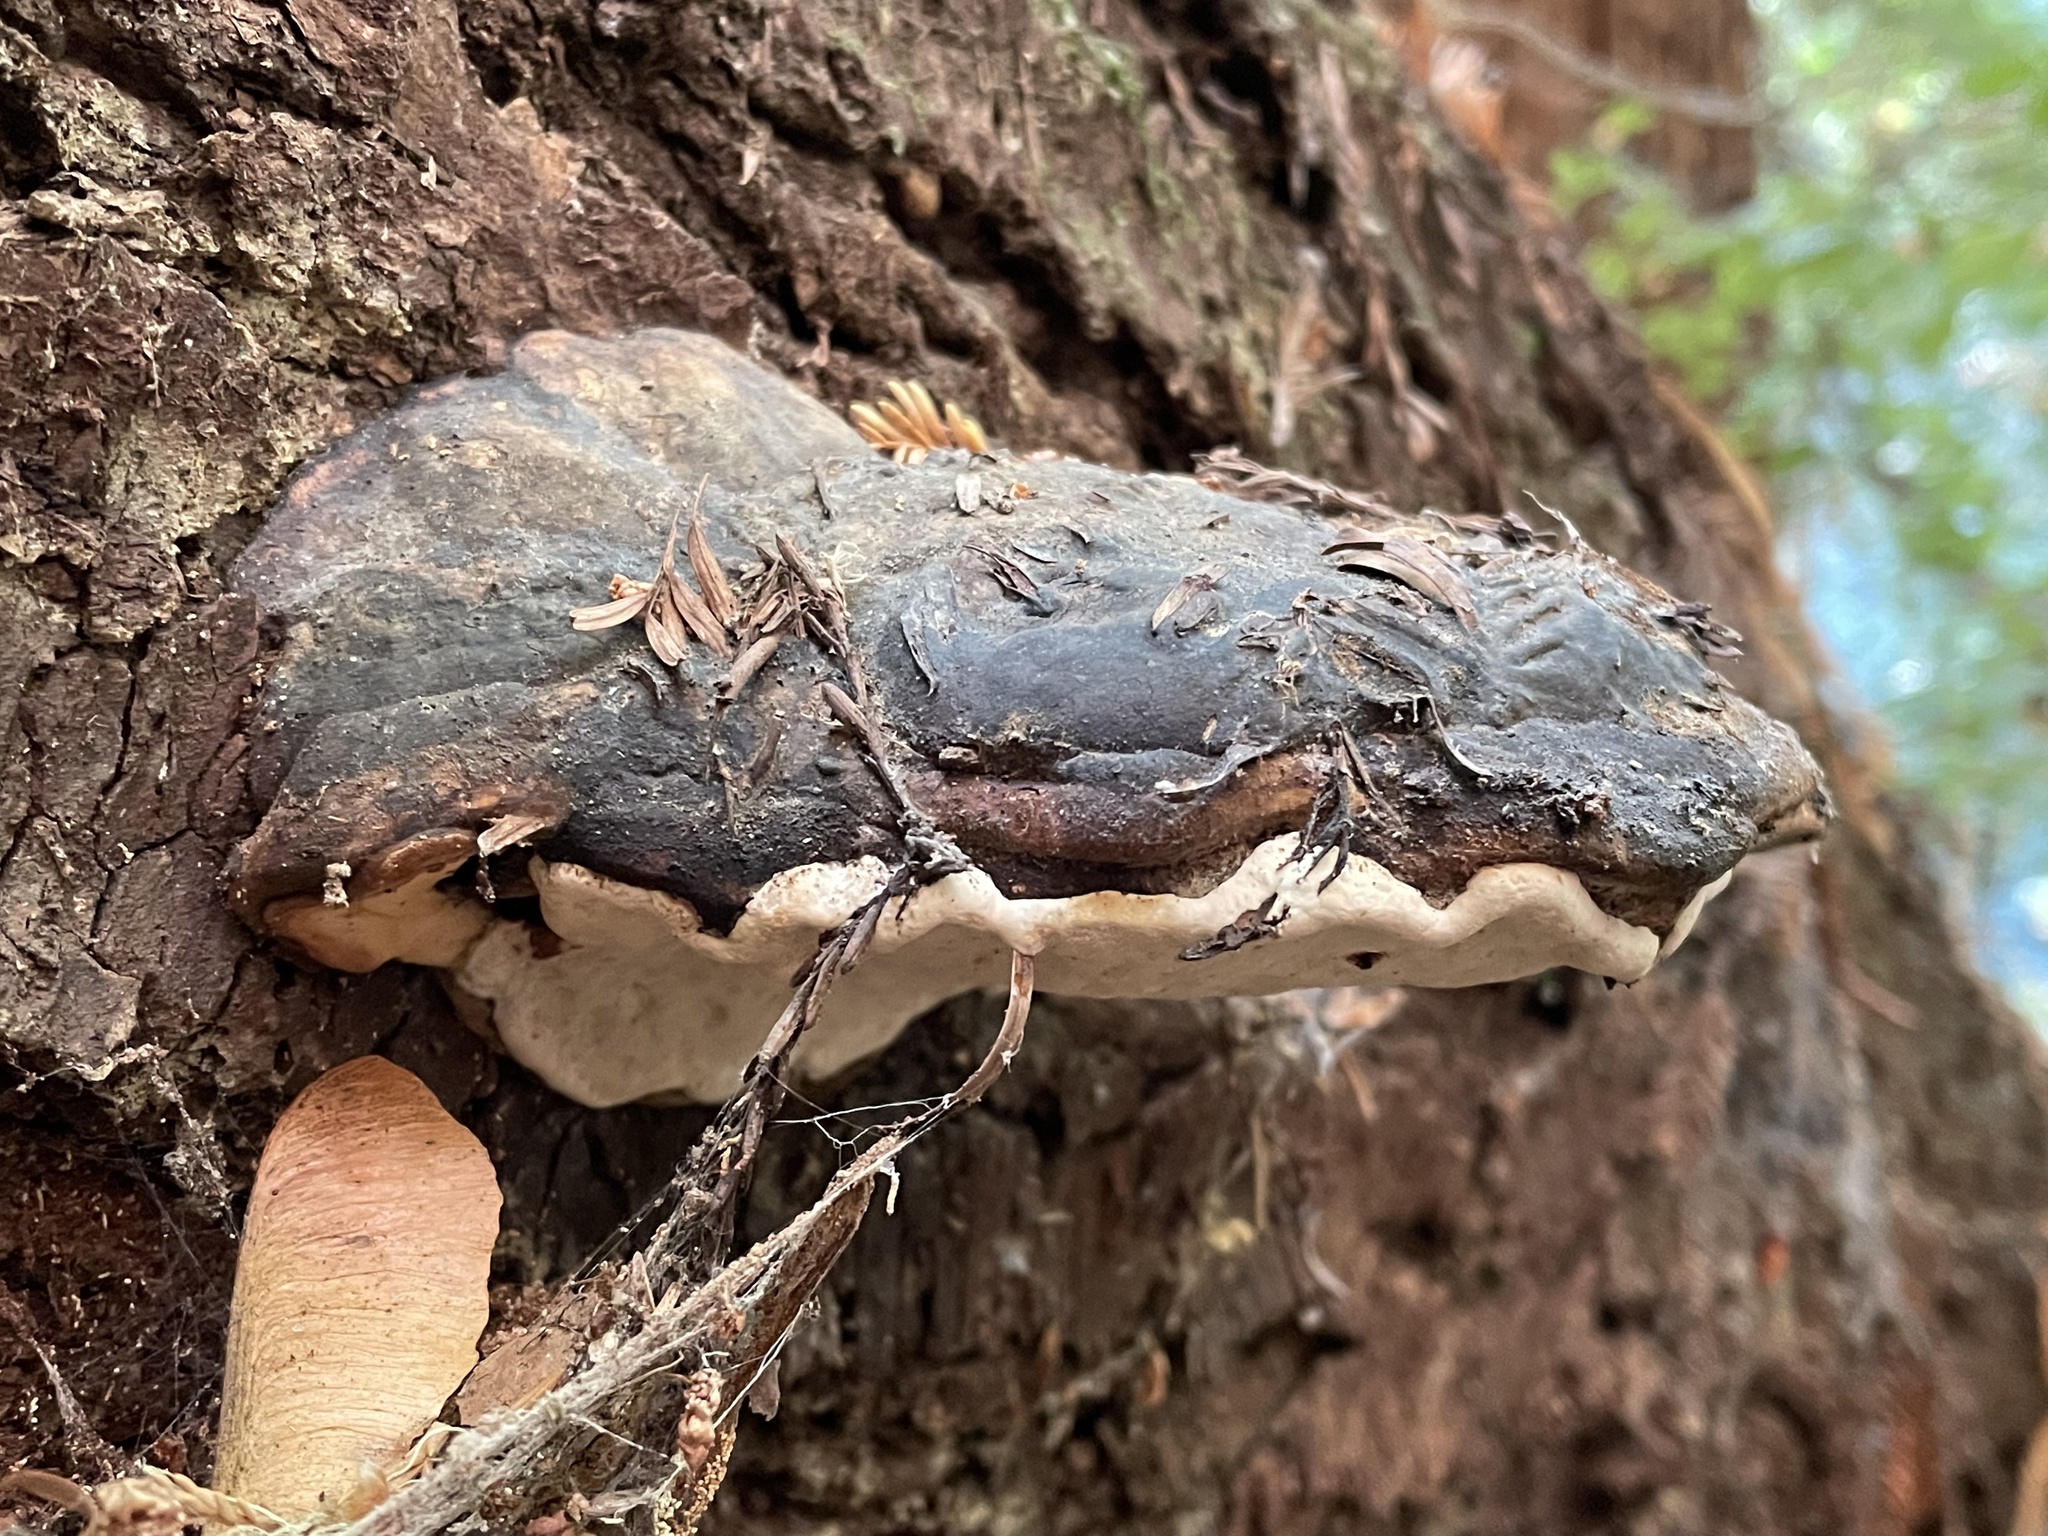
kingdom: Fungi
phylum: Basidiomycota
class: Agaricomycetes
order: Polyporales
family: Fomitopsidaceae
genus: Fomitopsis
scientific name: Fomitopsis mounceae
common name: Northern red belt
